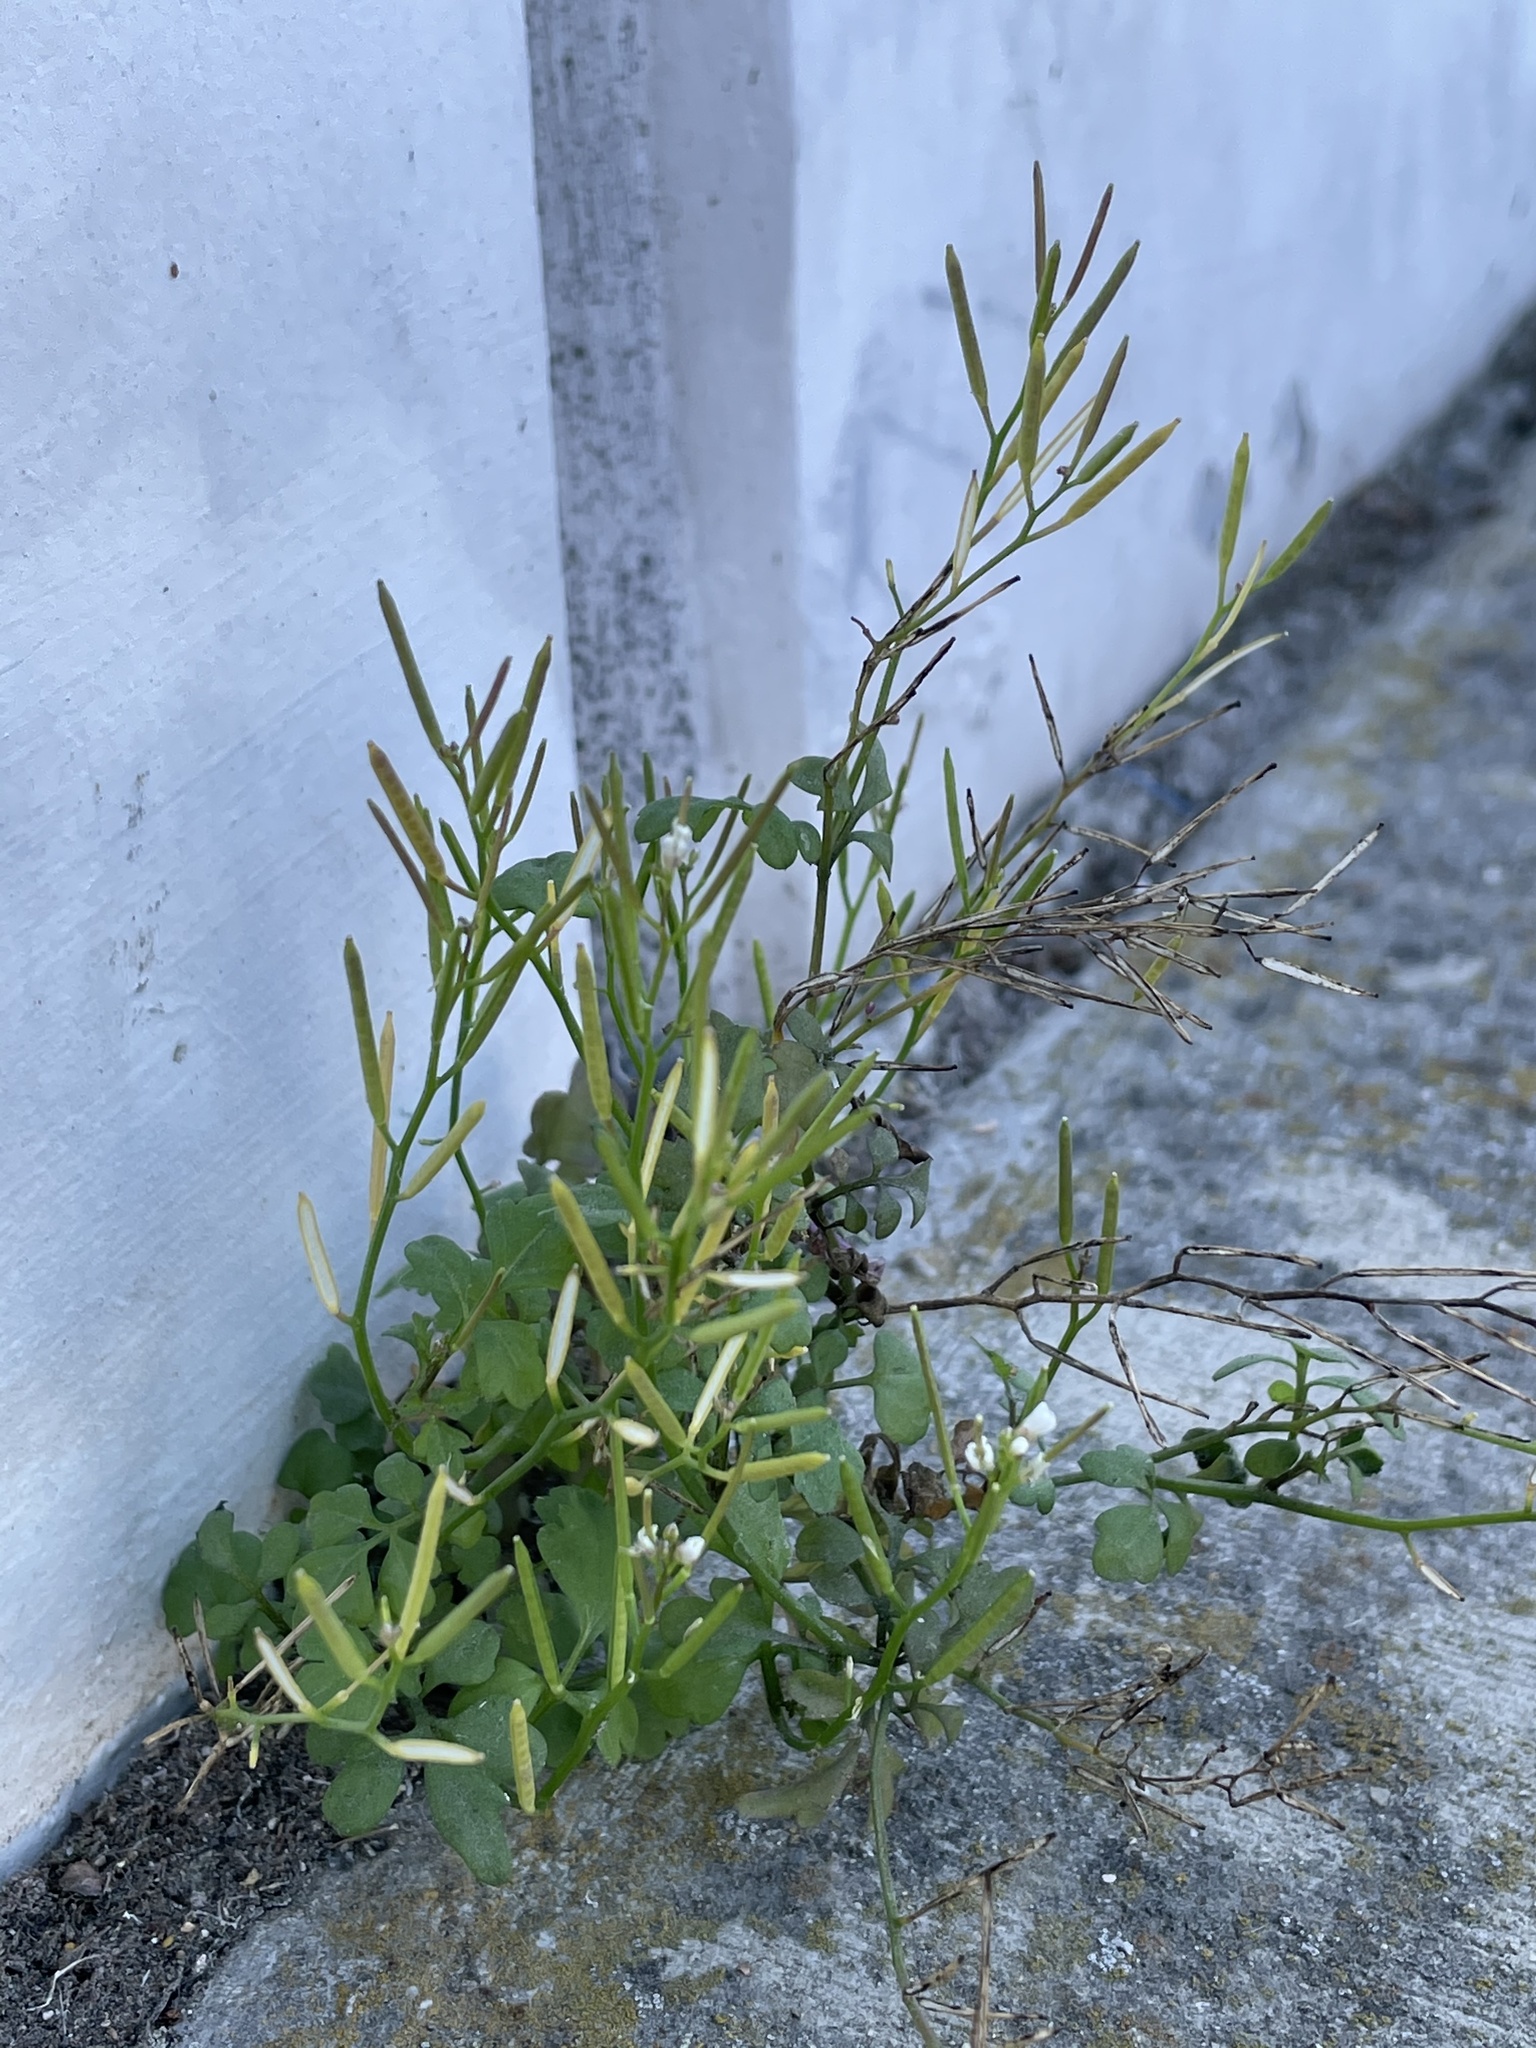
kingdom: Plantae
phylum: Tracheophyta
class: Magnoliopsida
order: Brassicales
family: Brassicaceae
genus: Cardamine
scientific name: Cardamine occulta
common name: Asian wavy bittercress
